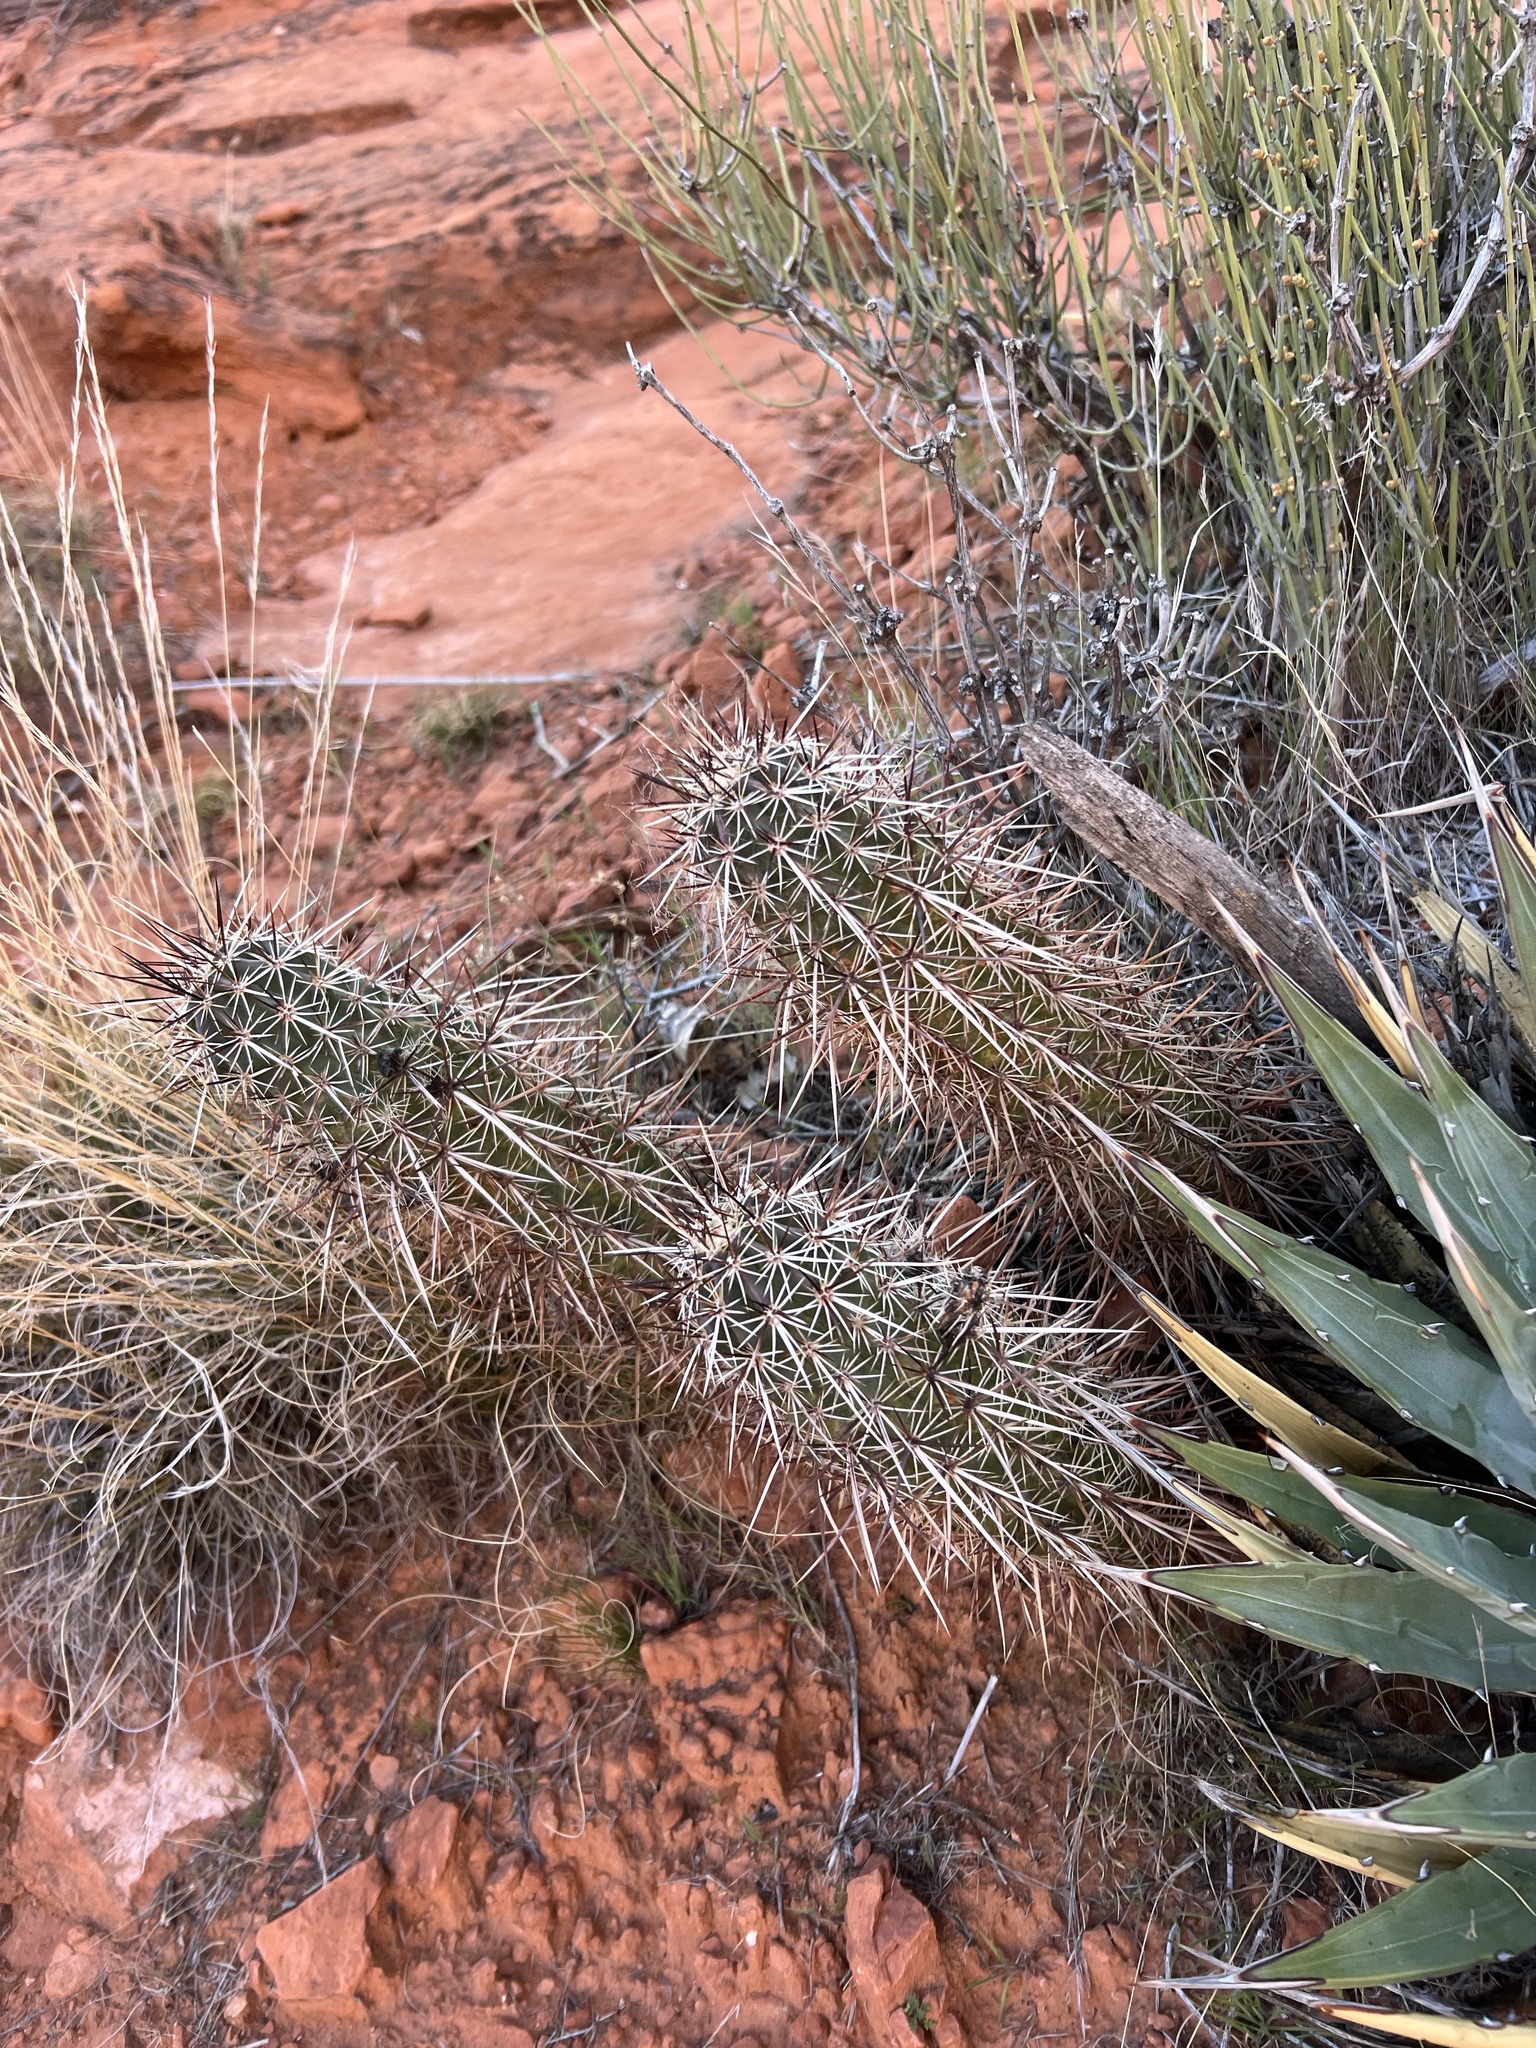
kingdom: Plantae
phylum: Tracheophyta
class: Magnoliopsida
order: Caryophyllales
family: Cactaceae
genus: Echinocereus
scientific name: Echinocereus engelmannii
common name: Engelmann's hedgehog cactus
